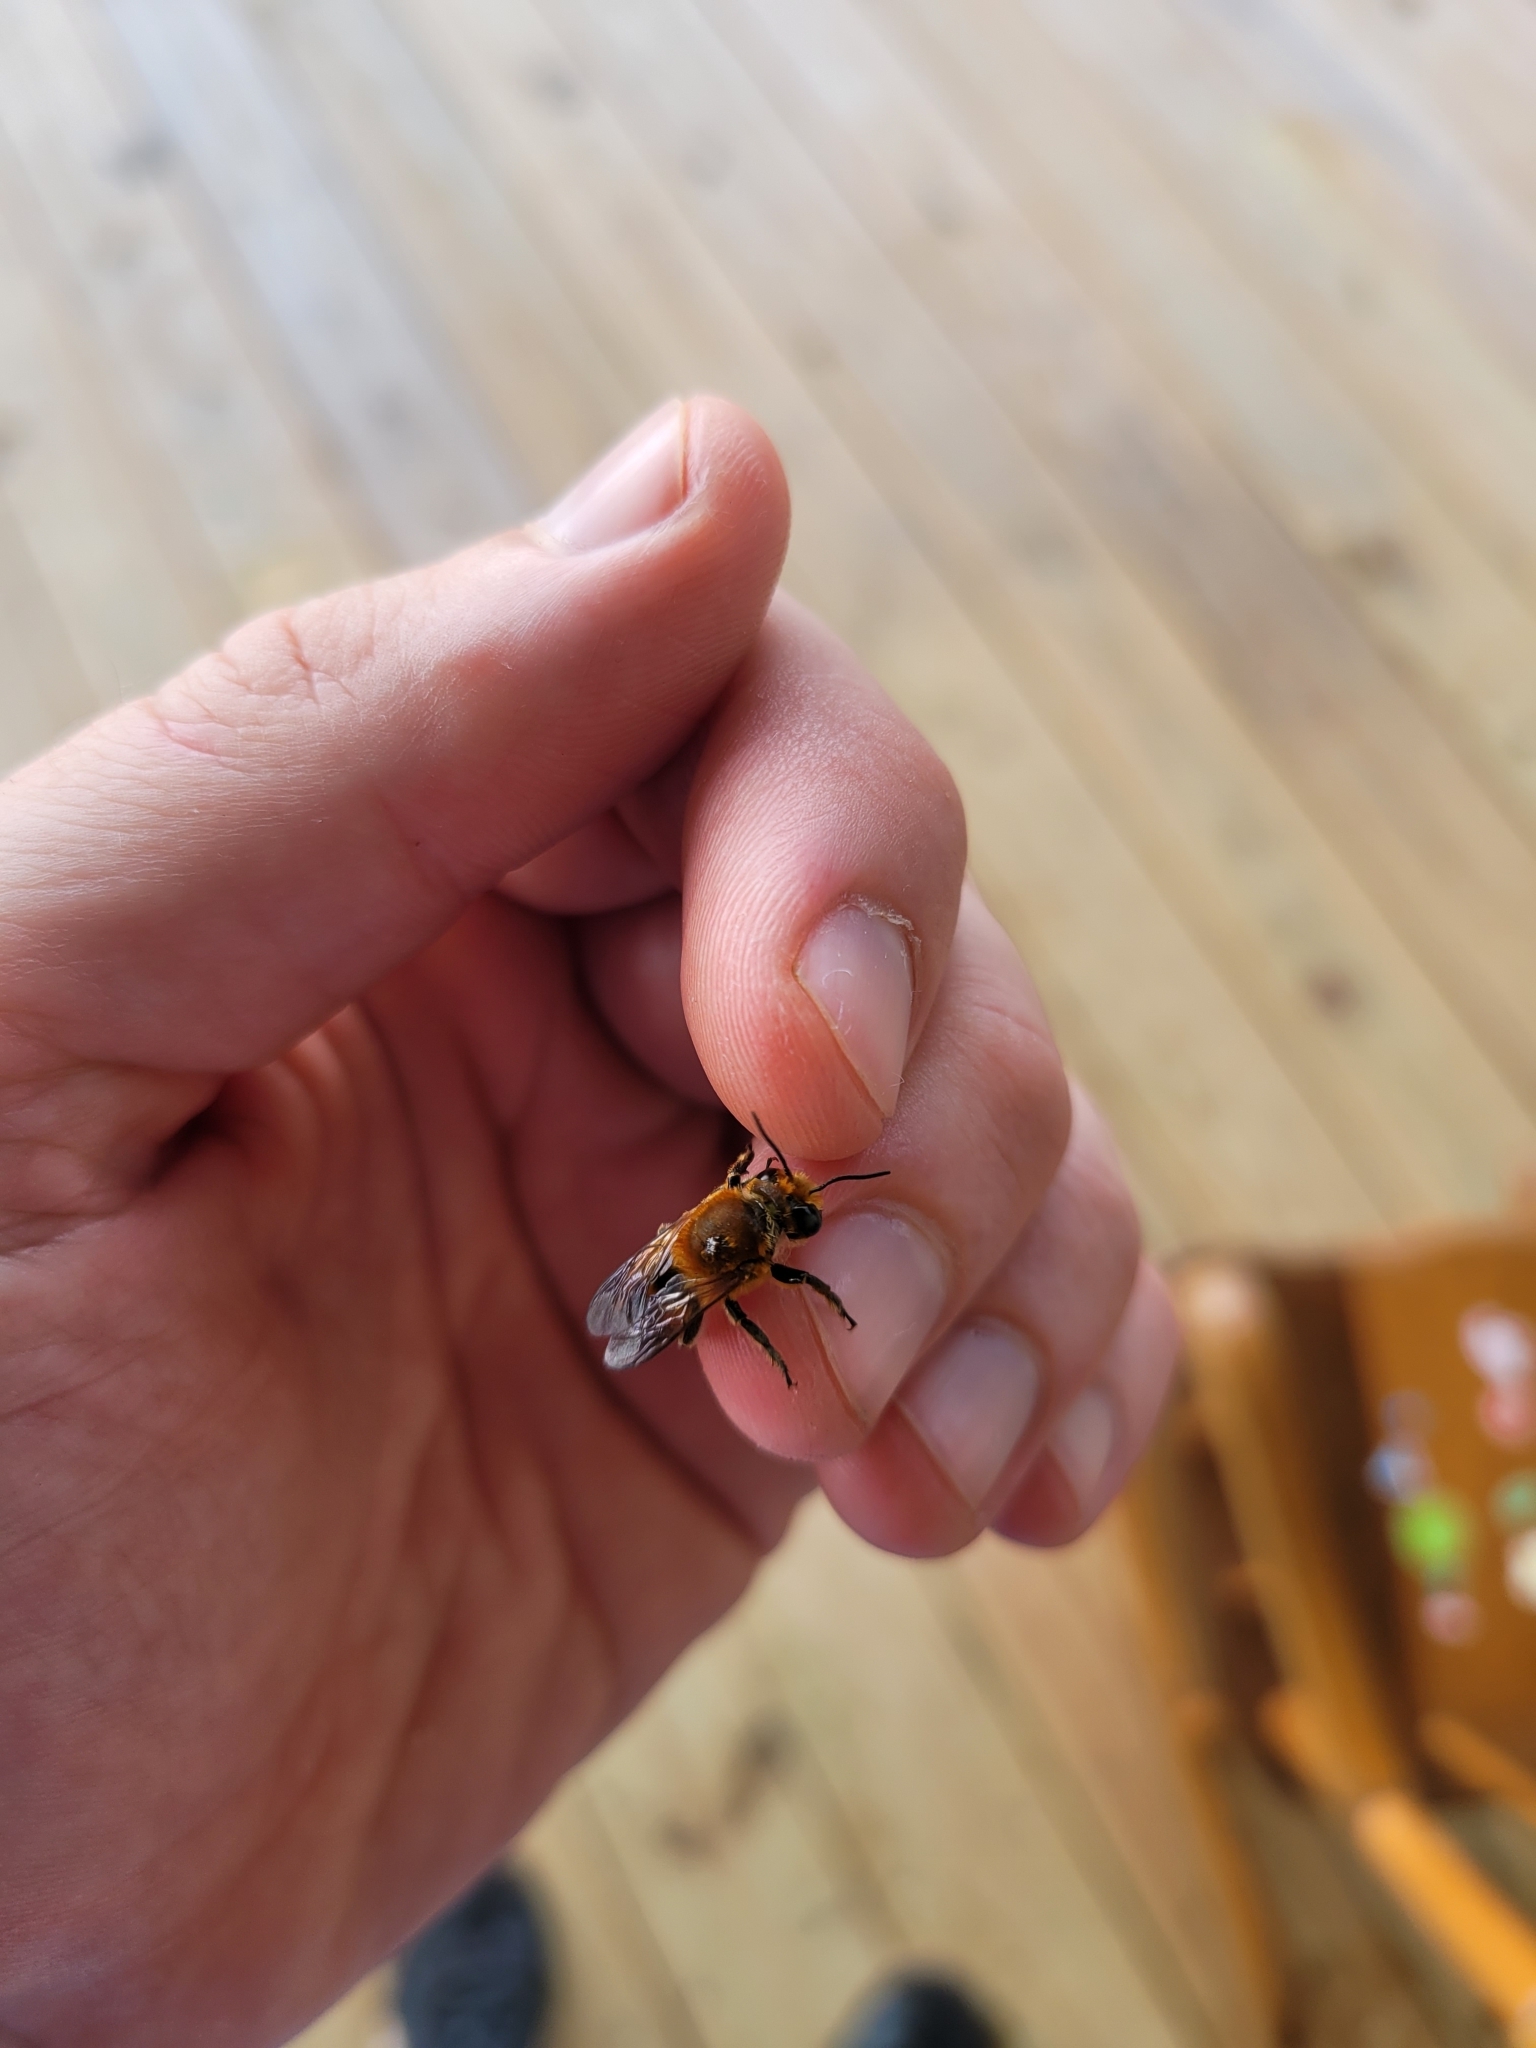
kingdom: Animalia
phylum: Arthropoda
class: Insecta
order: Hymenoptera
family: Megachilidae
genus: Megachile
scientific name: Megachile lanata
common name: Wooly wall bee
